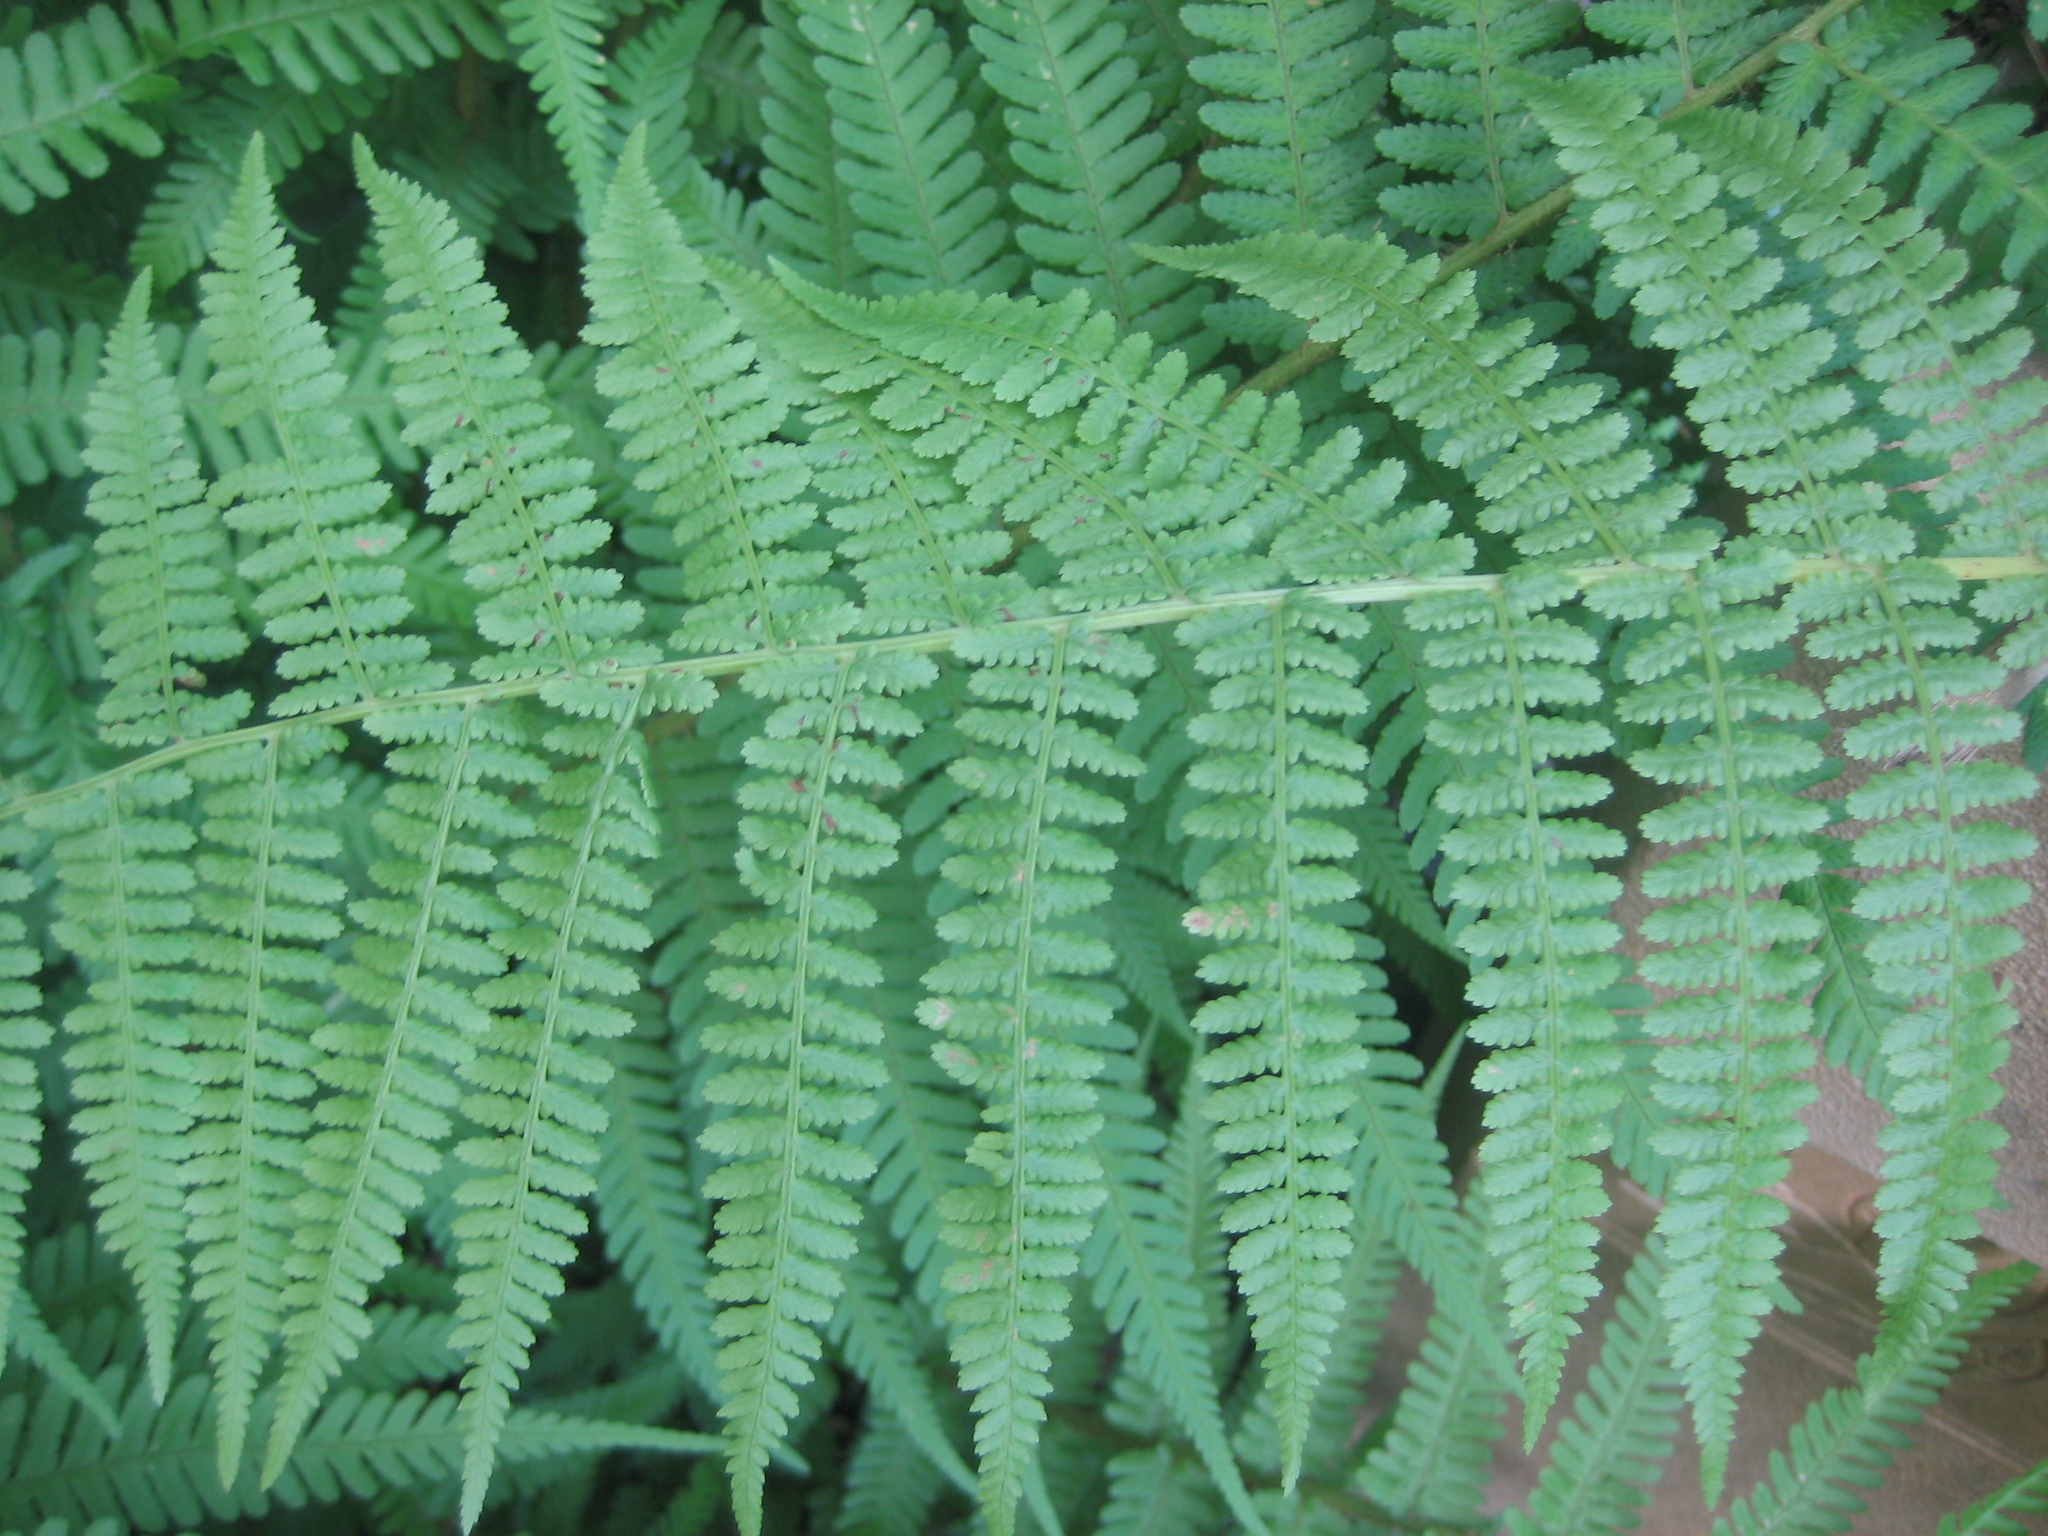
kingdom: Plantae
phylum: Tracheophyta
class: Polypodiopsida
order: Polypodiales
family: Athyriaceae
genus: Athyrium
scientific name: Athyrium filix-femina
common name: Lady fern
